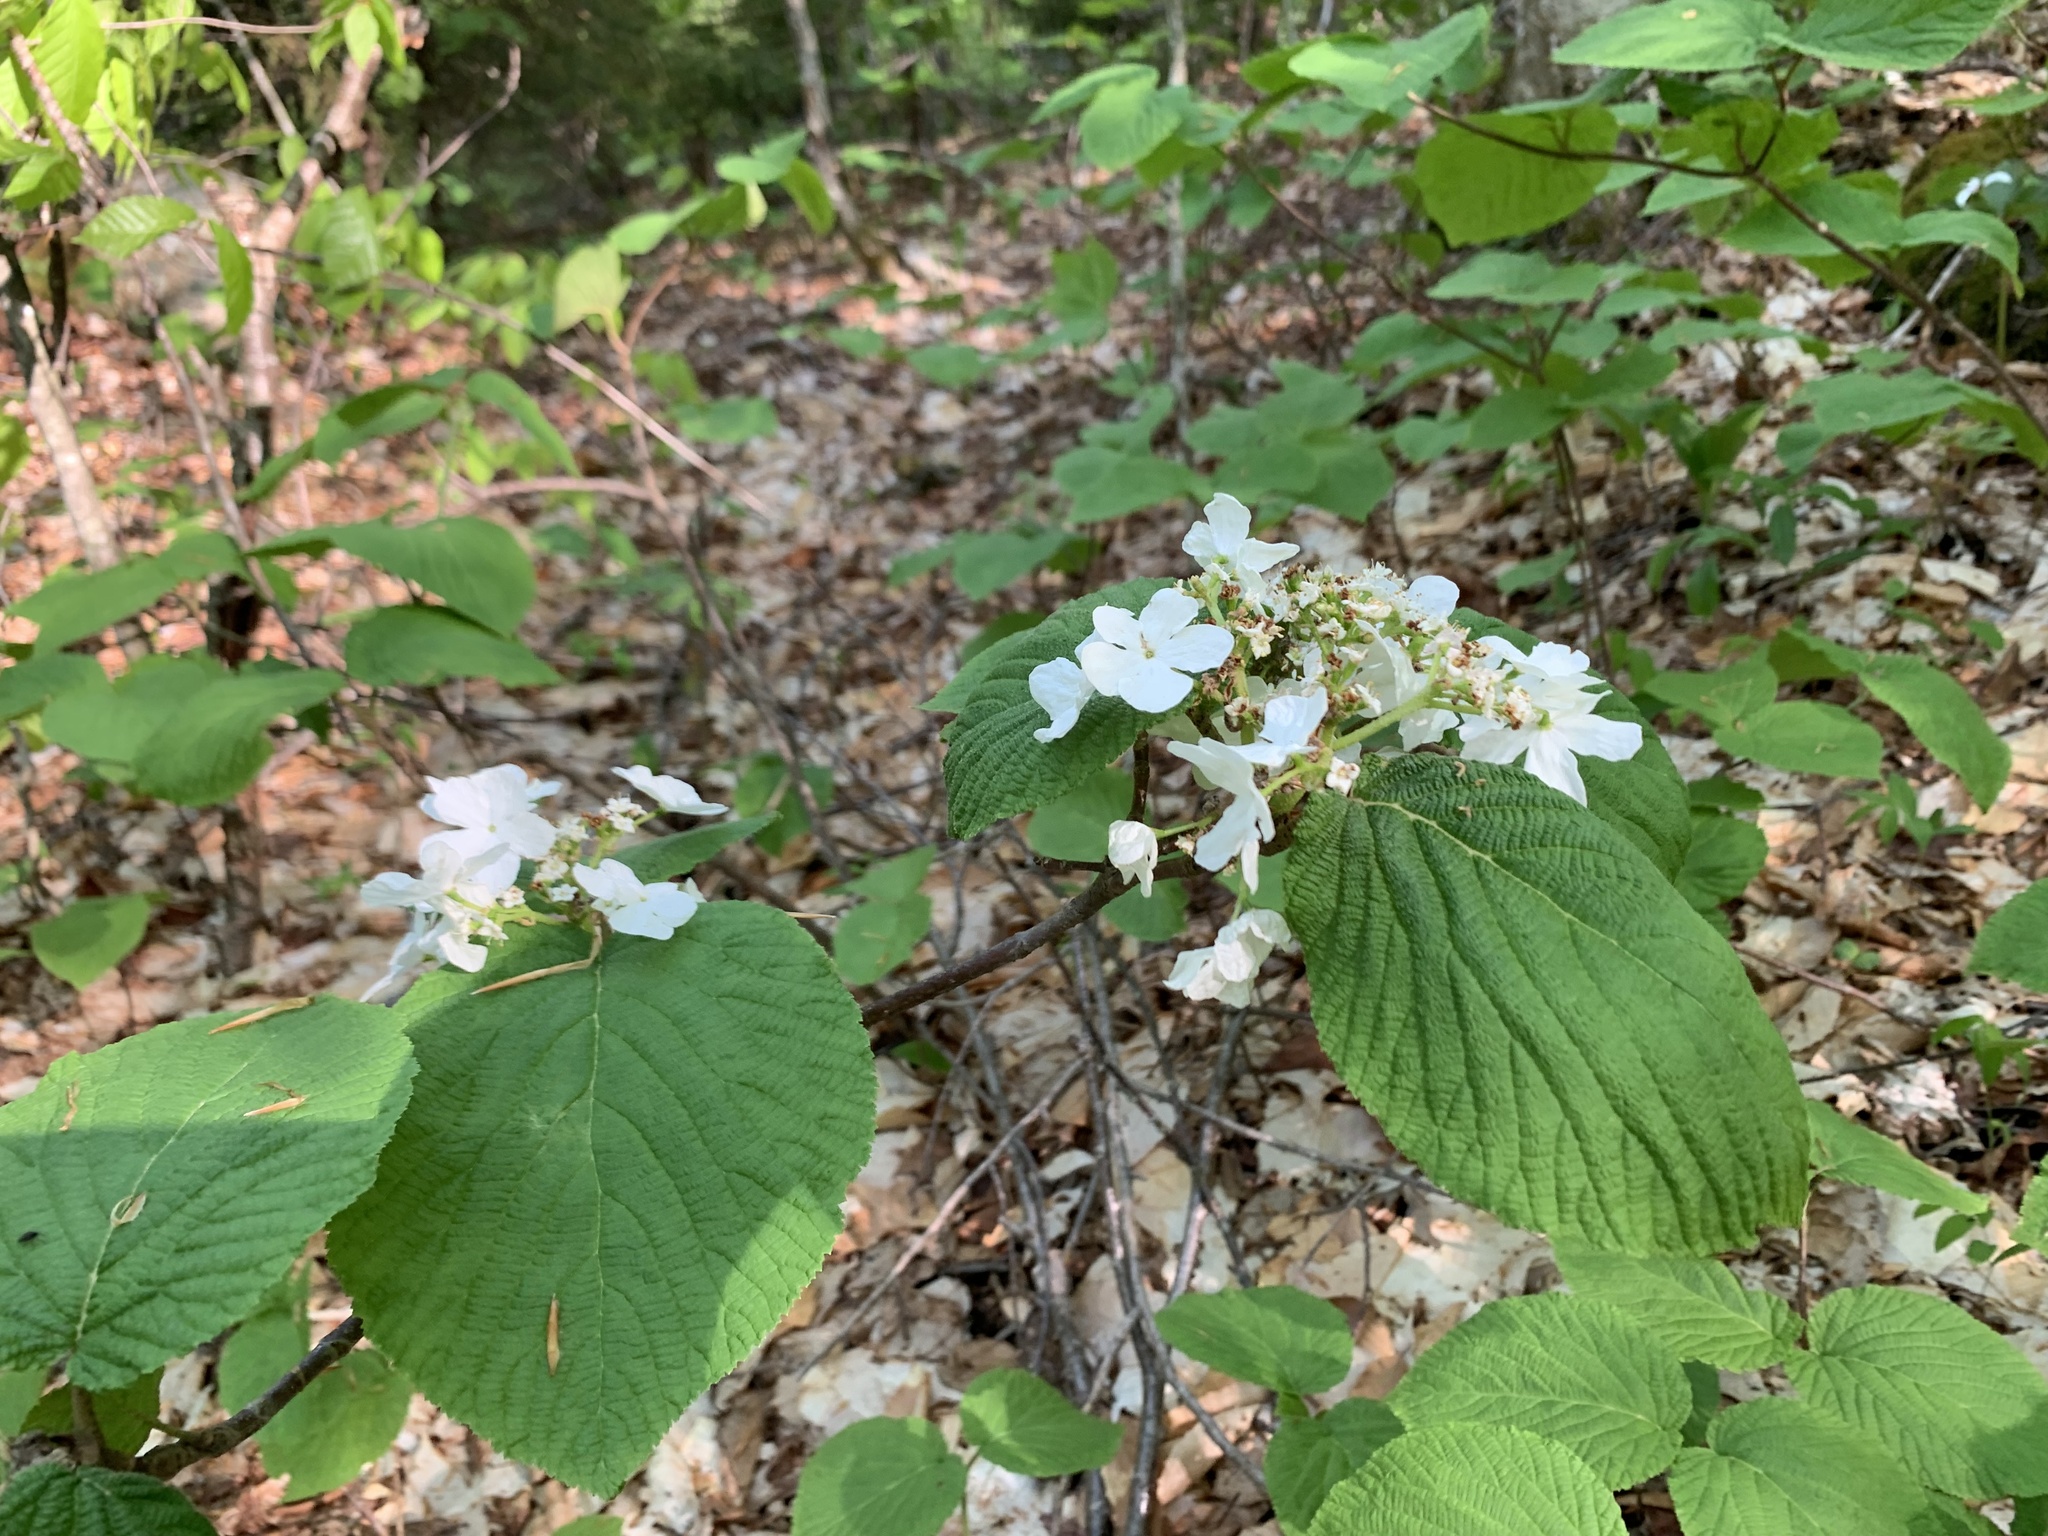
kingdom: Plantae
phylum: Tracheophyta
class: Magnoliopsida
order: Dipsacales
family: Viburnaceae
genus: Viburnum
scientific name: Viburnum lantanoides
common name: Hobblebush
